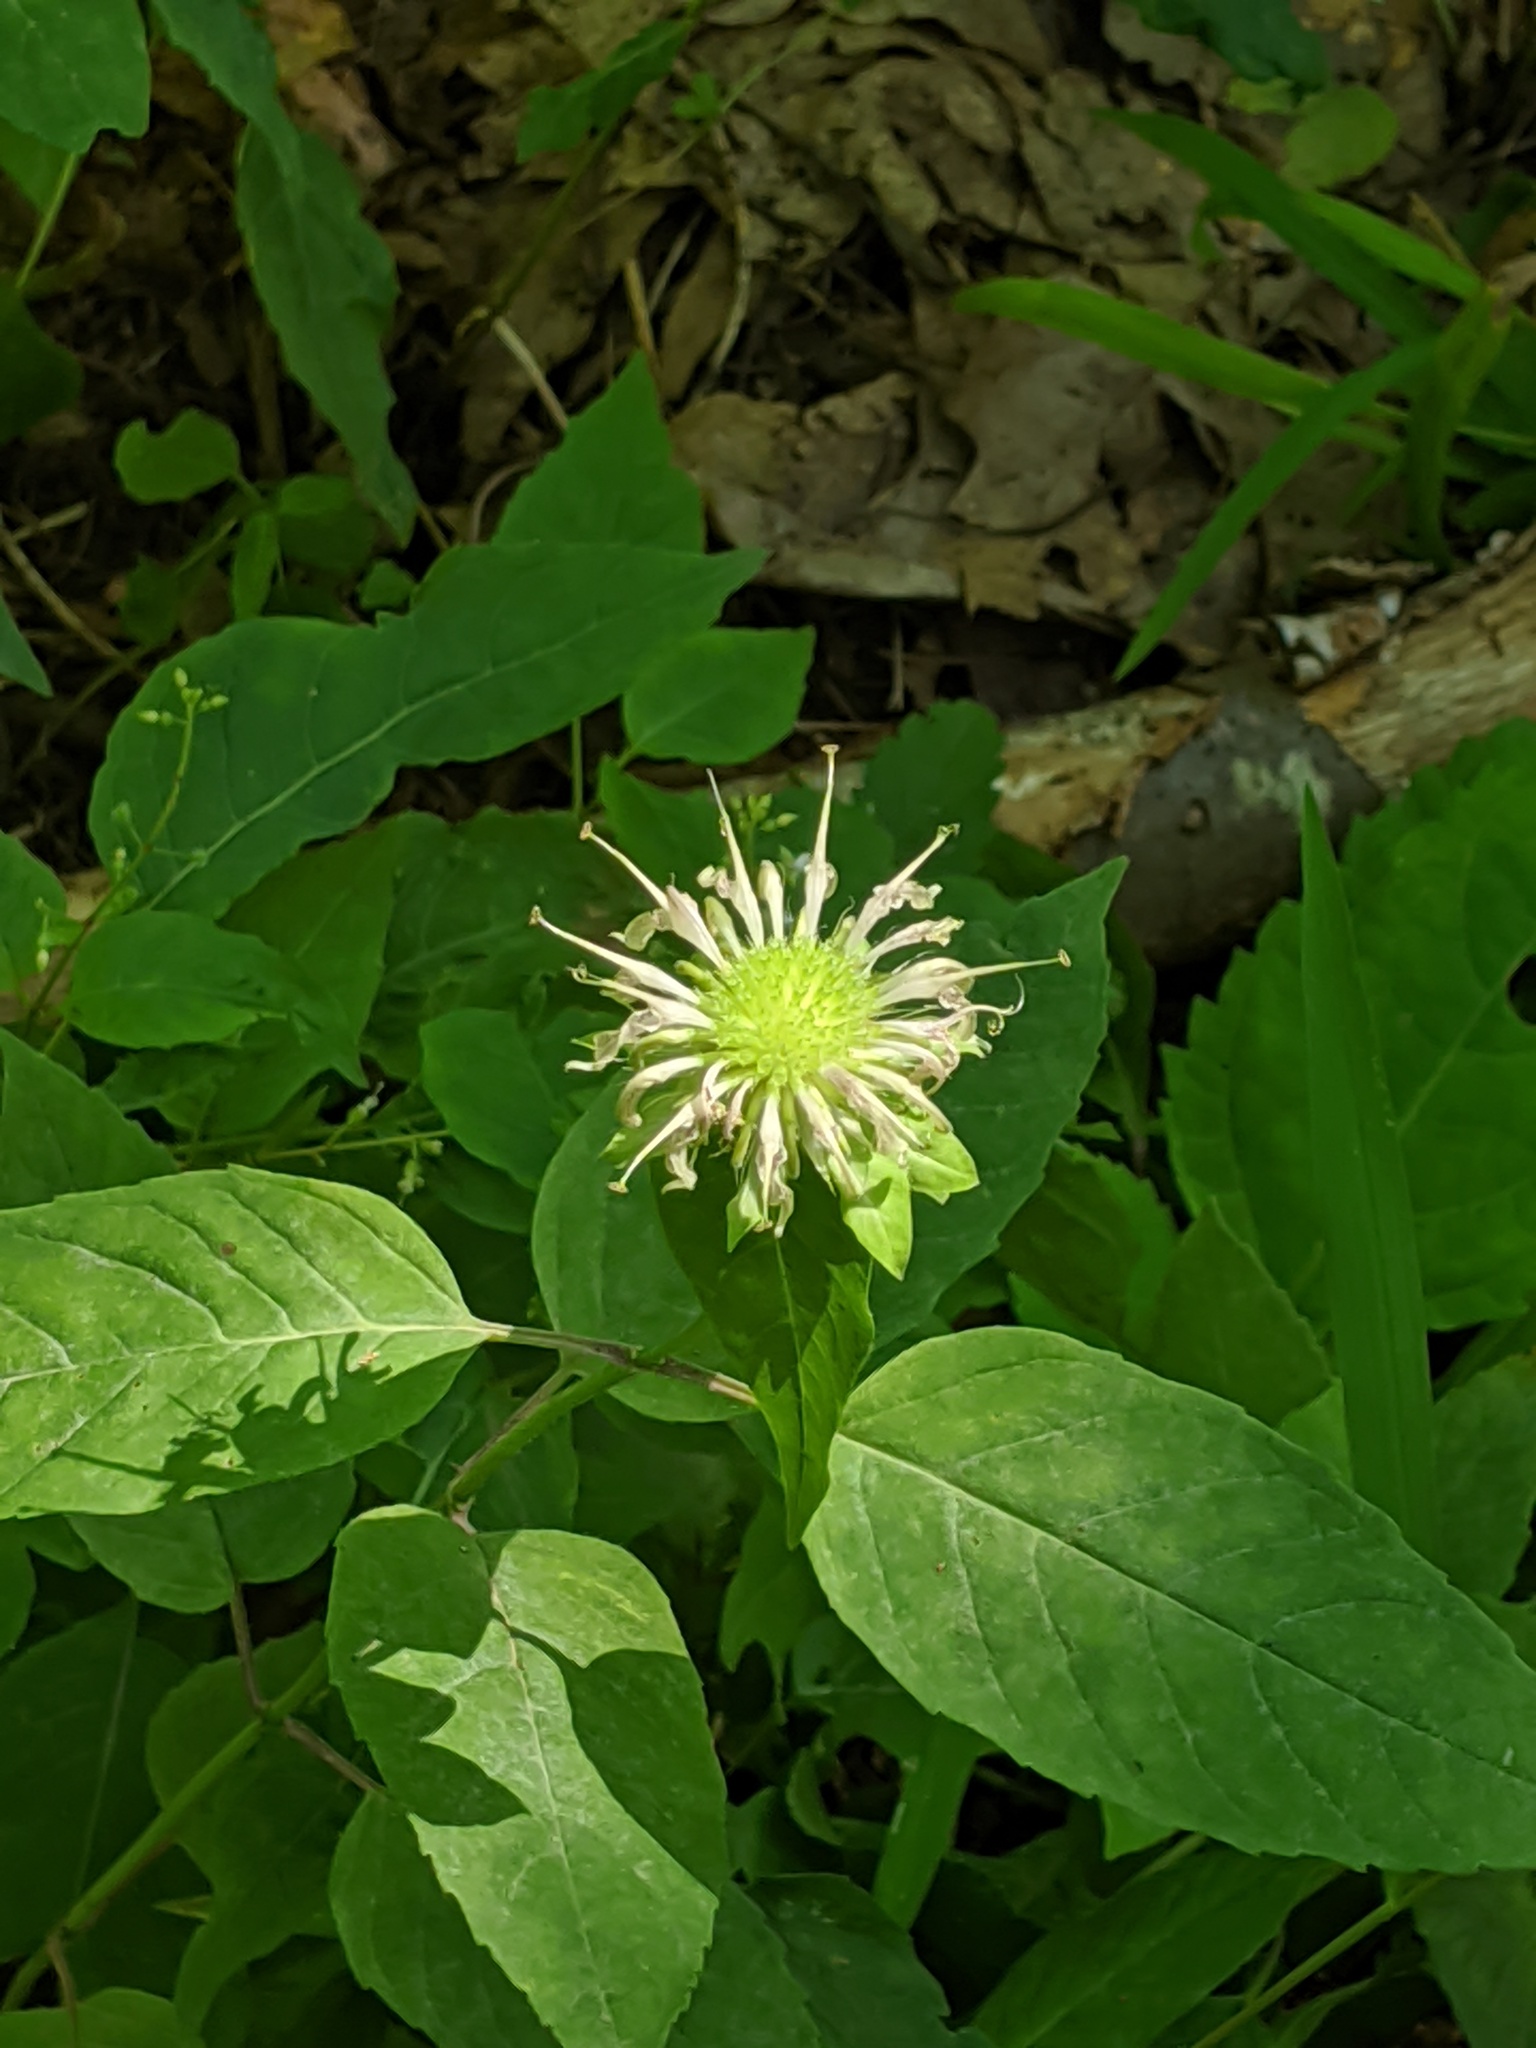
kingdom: Plantae
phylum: Tracheophyta
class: Magnoliopsida
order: Lamiales
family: Lamiaceae
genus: Monarda
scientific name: Monarda clinopodia
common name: Basil beebalm
